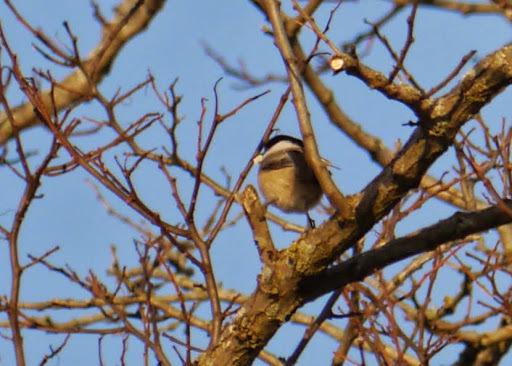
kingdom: Animalia
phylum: Chordata
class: Aves
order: Passeriformes
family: Paridae
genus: Poecile
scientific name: Poecile atricapillus
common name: Black-capped chickadee
